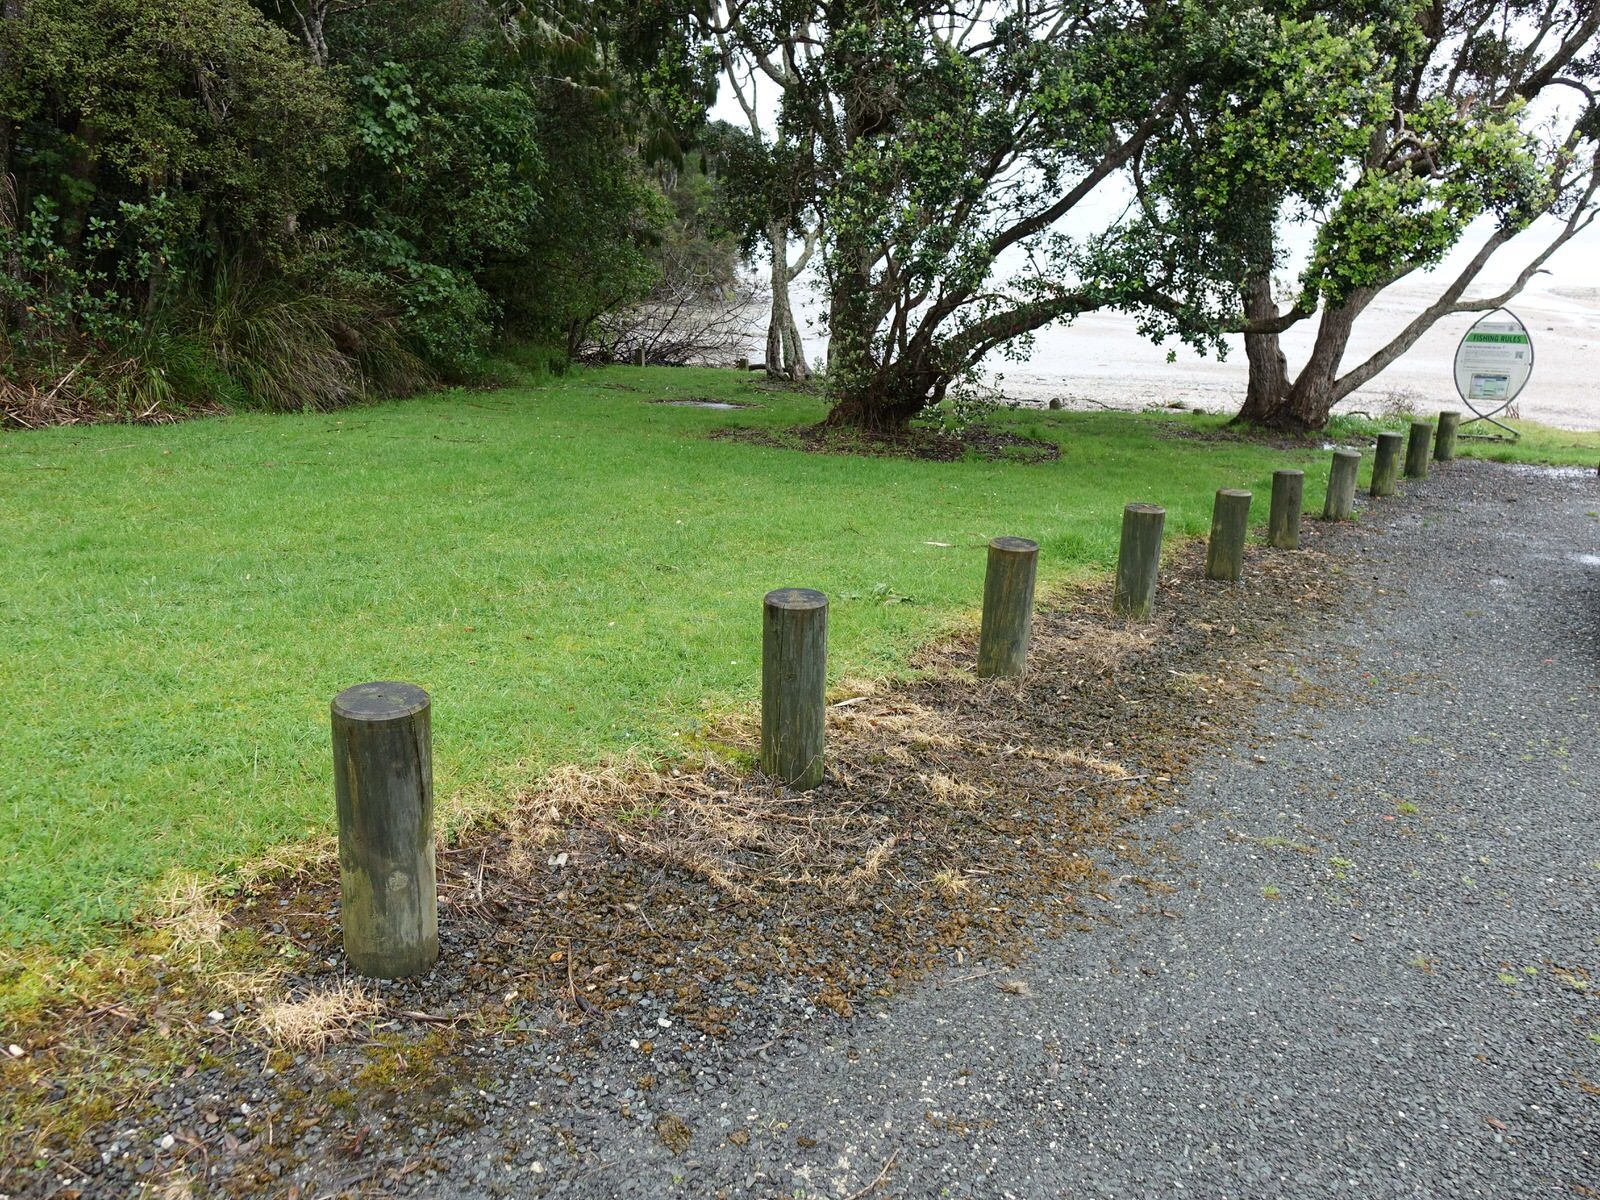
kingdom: Bacteria
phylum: Cyanobacteria
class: Cyanobacteriia
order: Cyanobacteriales
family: Nostocaceae
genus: Nostoc
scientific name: Nostoc commune
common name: Star jelly
